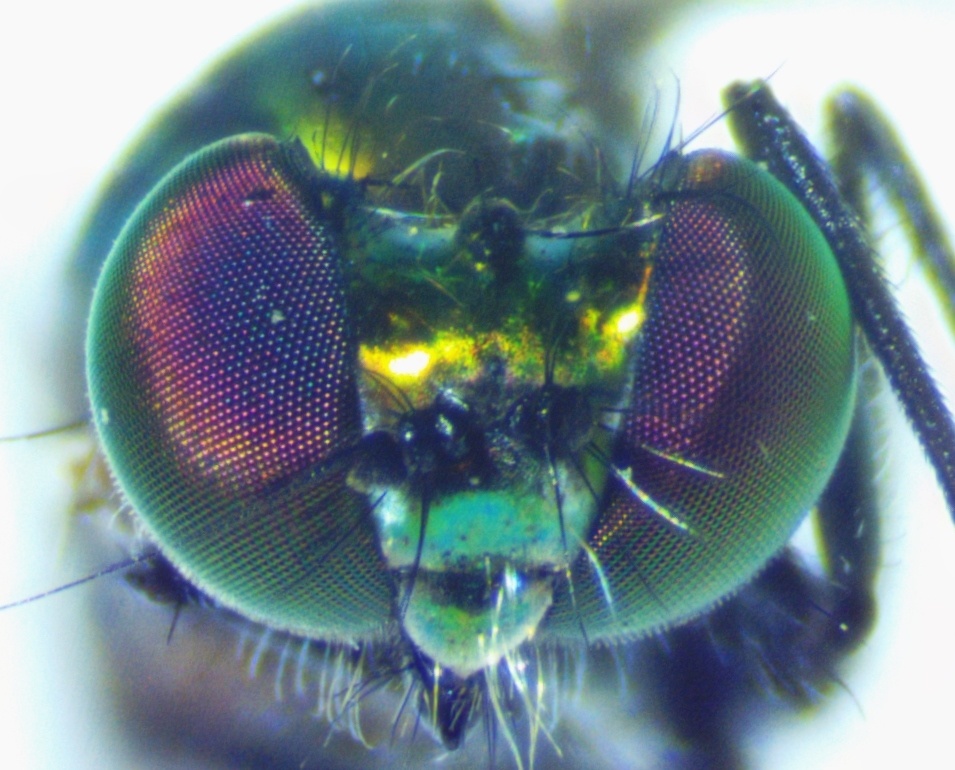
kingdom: Animalia
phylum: Arthropoda
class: Insecta
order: Diptera
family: Dolichopodidae
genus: Condylostylus
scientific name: Condylostylus patibulatus
